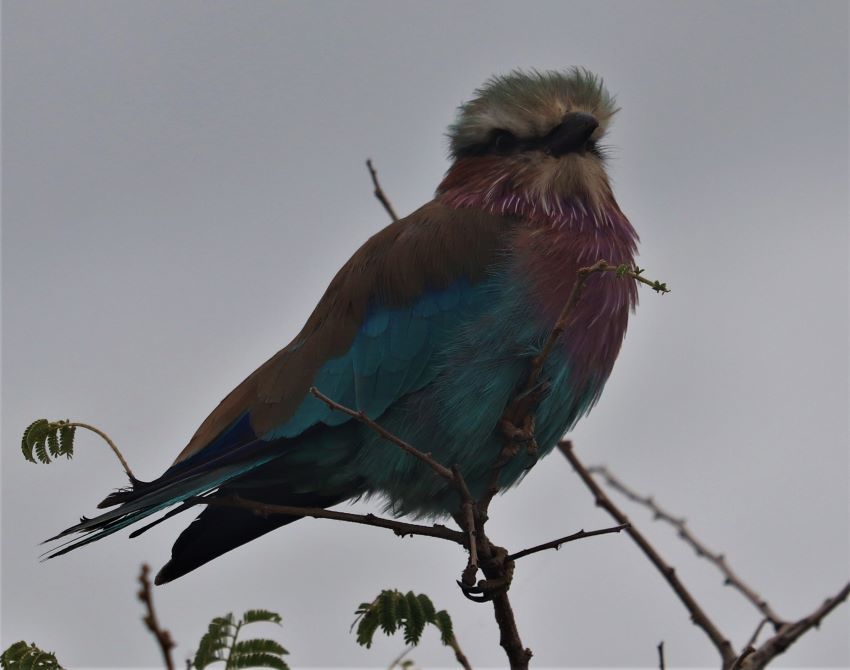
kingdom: Animalia
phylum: Chordata
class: Aves
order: Coraciiformes
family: Coraciidae
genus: Coracias
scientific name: Coracias caudatus
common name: Lilac-breasted roller
